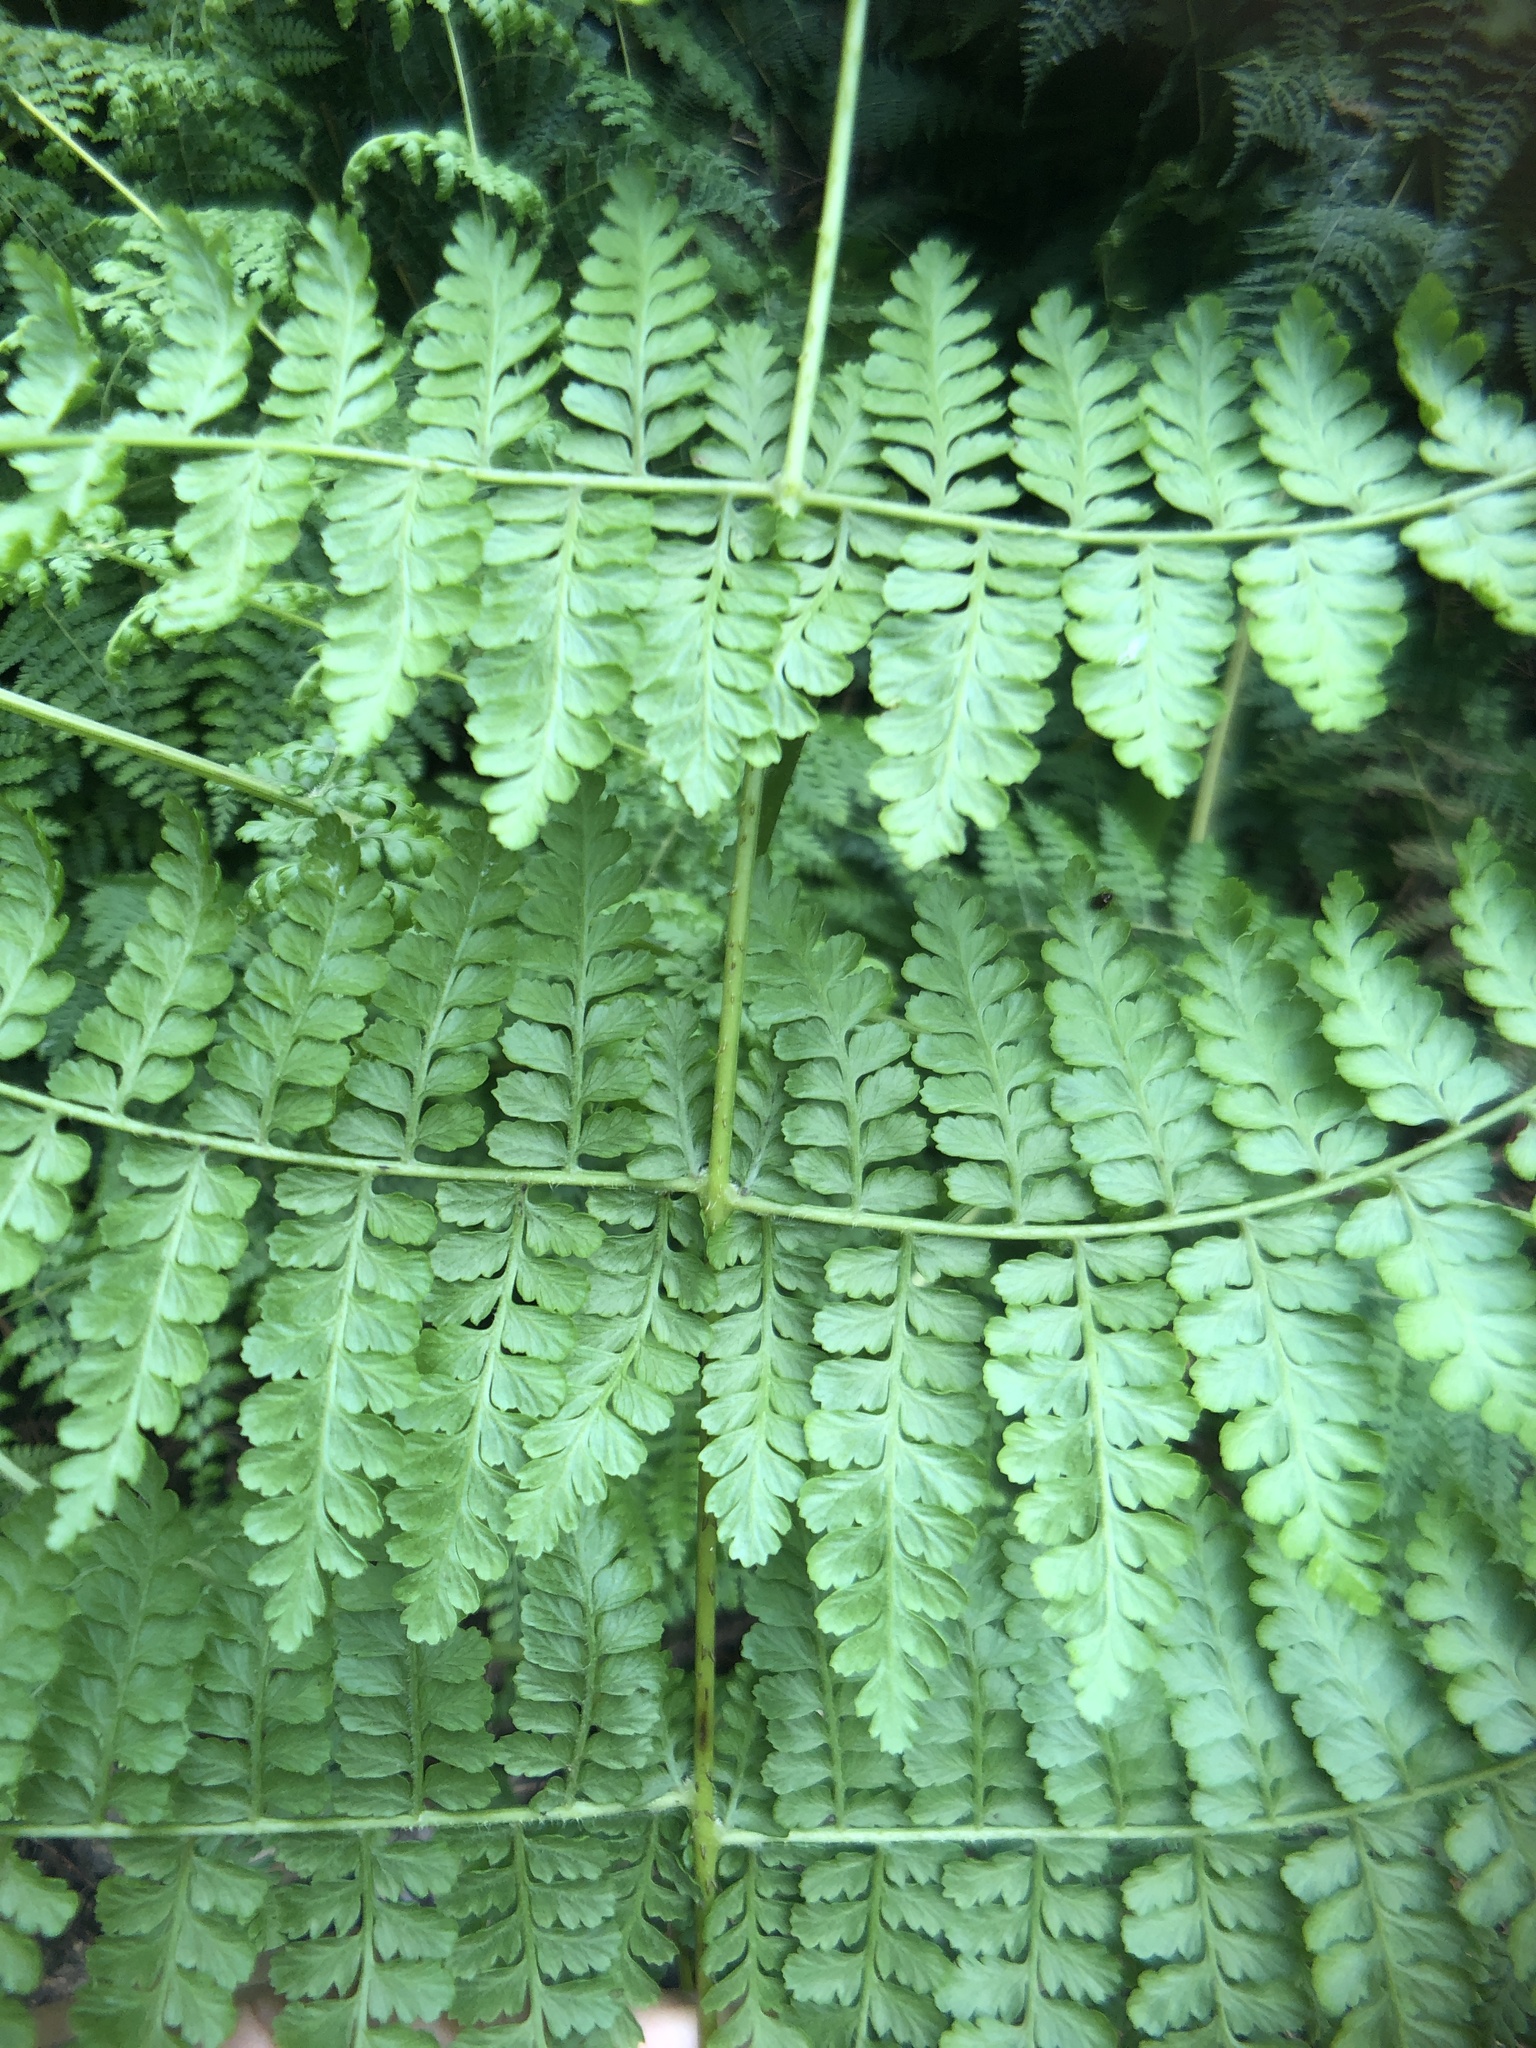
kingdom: Plantae
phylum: Tracheophyta
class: Polypodiopsida
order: Polypodiales
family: Dennstaedtiaceae
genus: Dennstaedtia
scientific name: Dennstaedtia scandens
